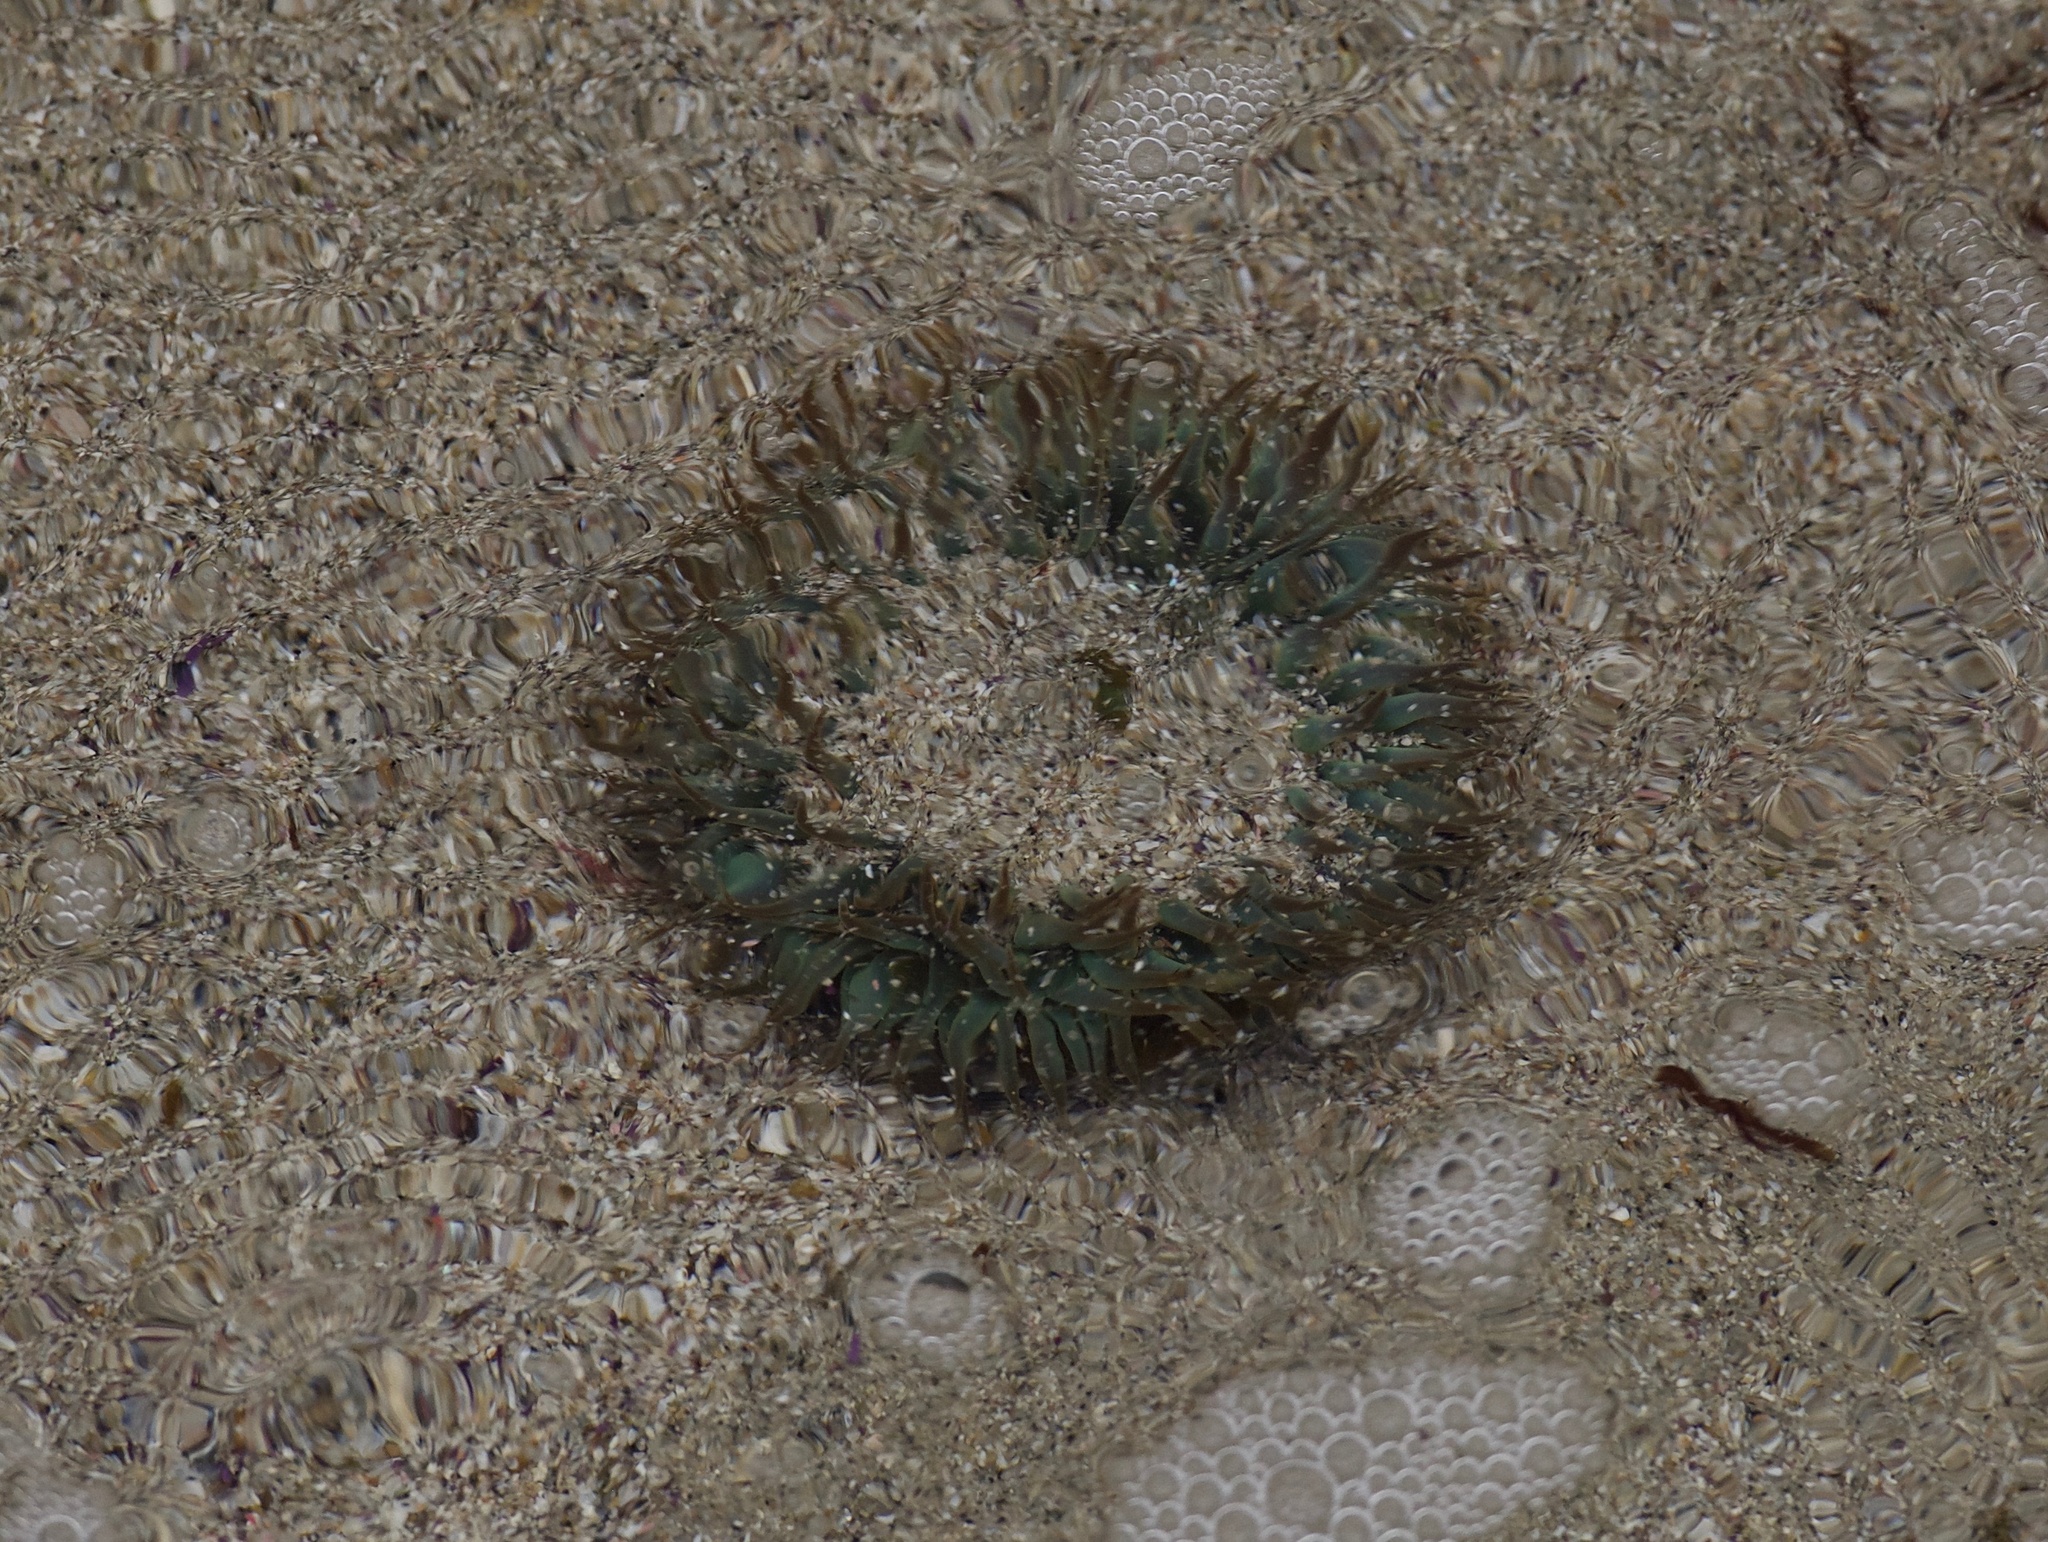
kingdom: Animalia
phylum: Cnidaria
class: Anthozoa
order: Actiniaria
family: Actiniidae
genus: Anthopleura
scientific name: Anthopleura sola
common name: Sun anemone
